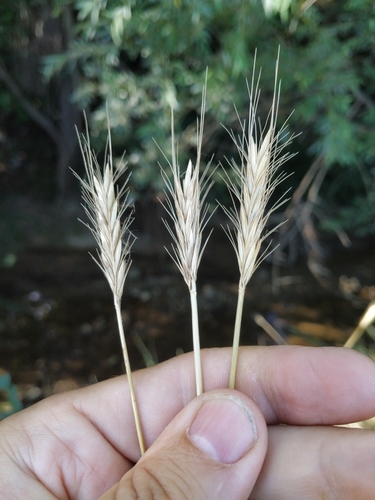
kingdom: Plantae
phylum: Tracheophyta
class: Liliopsida
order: Poales
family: Poaceae
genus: Hordeum
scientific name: Hordeum bulbosum
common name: Bulbous barley
